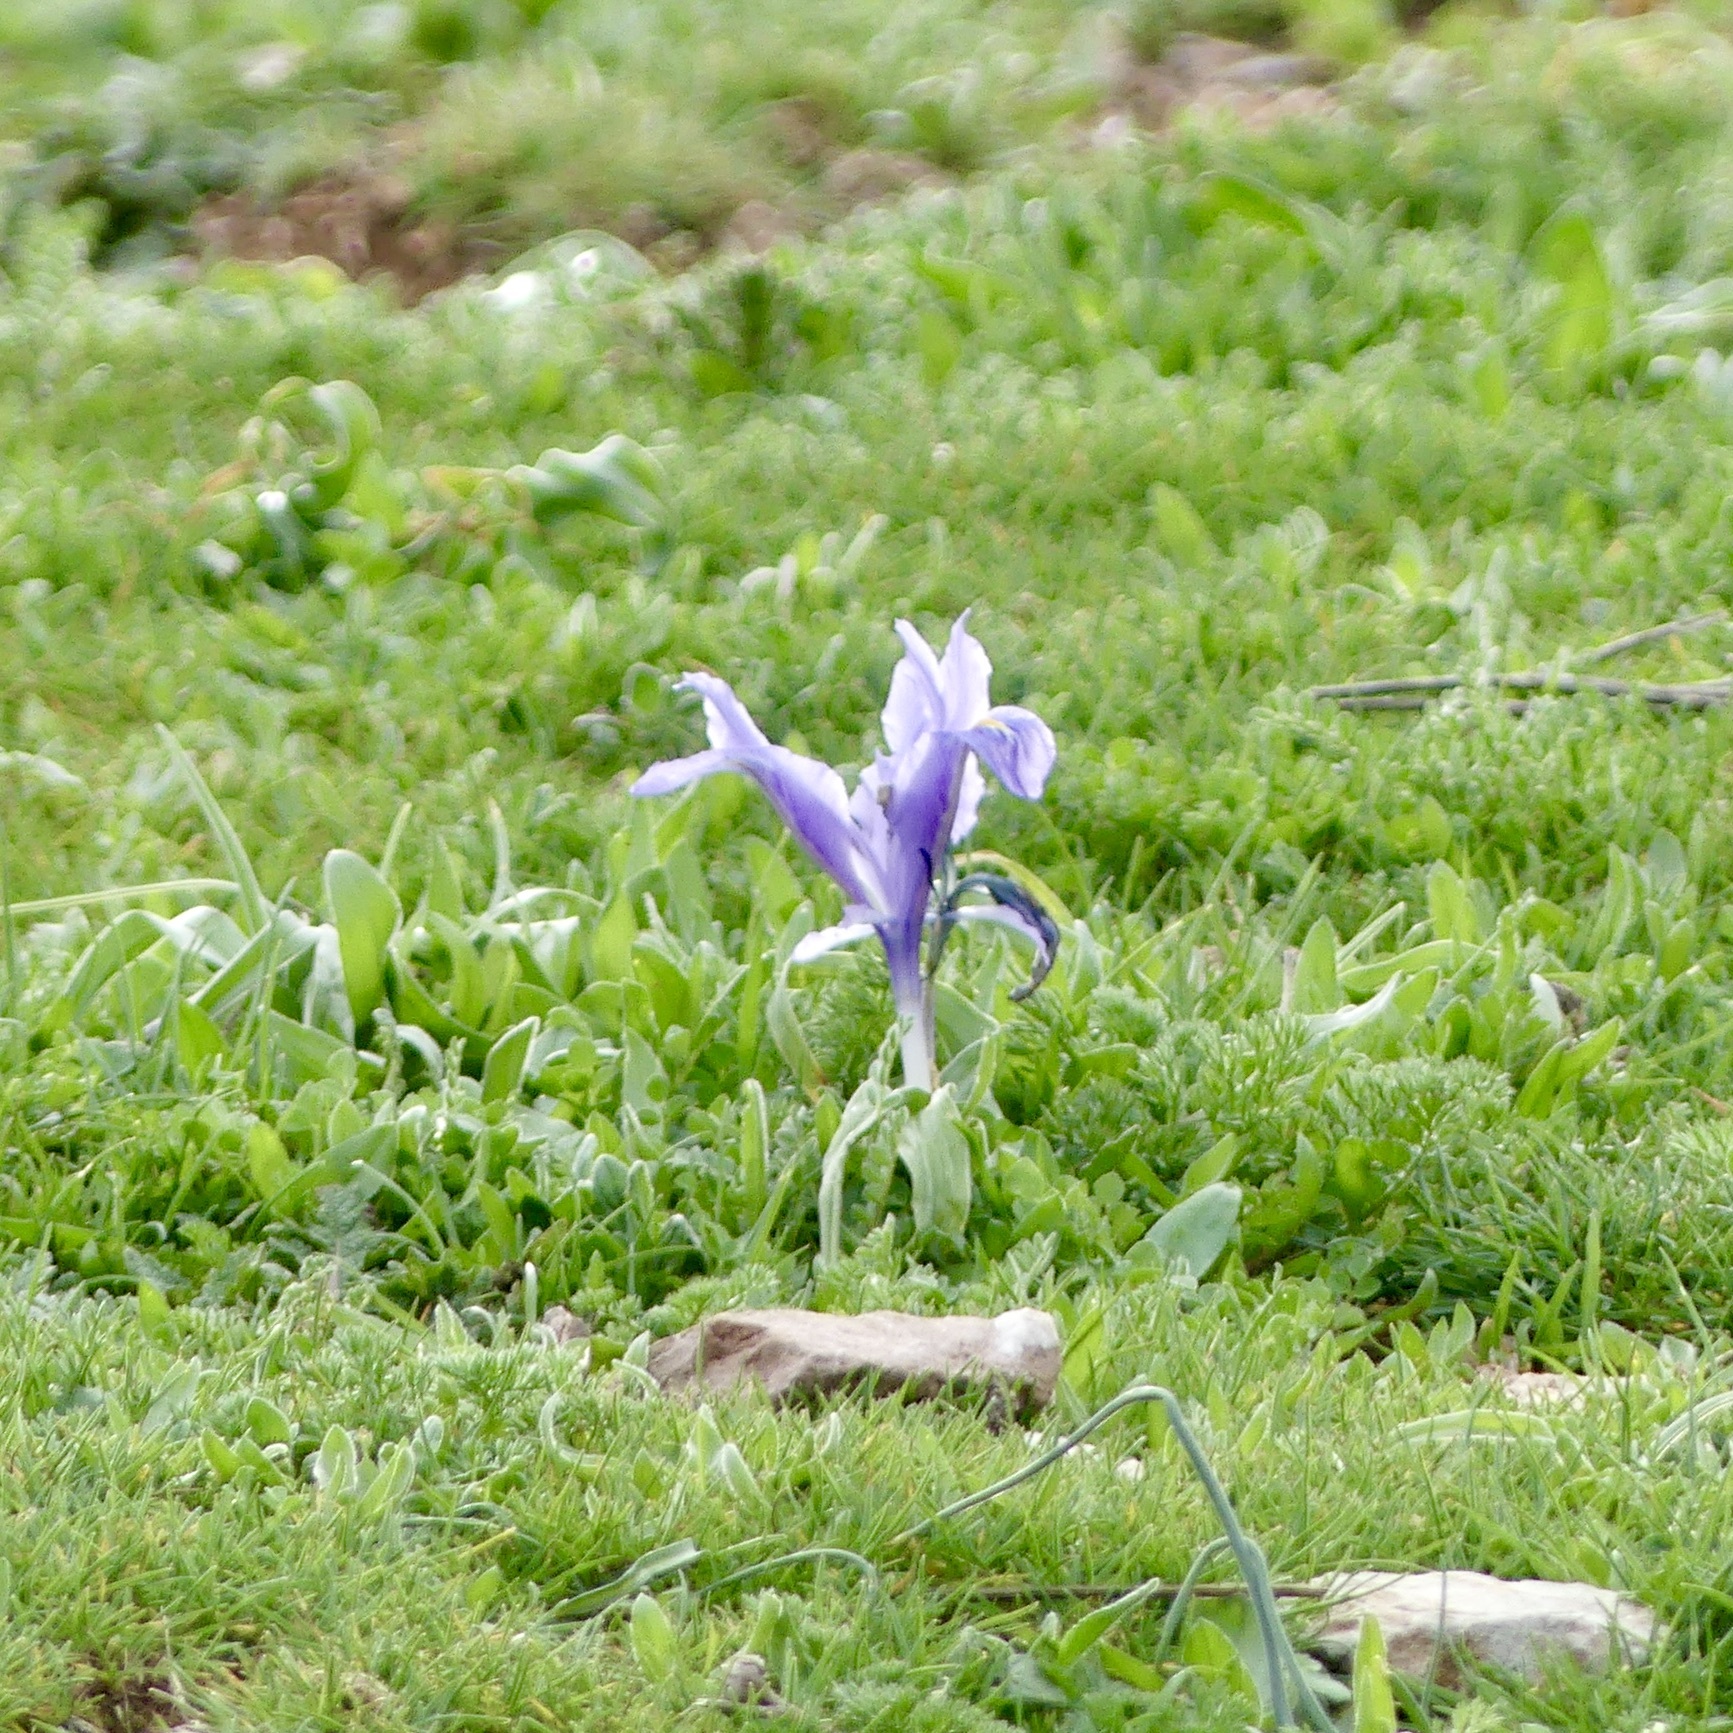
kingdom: Plantae
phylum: Tracheophyta
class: Liliopsida
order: Asparagales
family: Iridaceae
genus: Iris
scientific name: Iris planifolia
